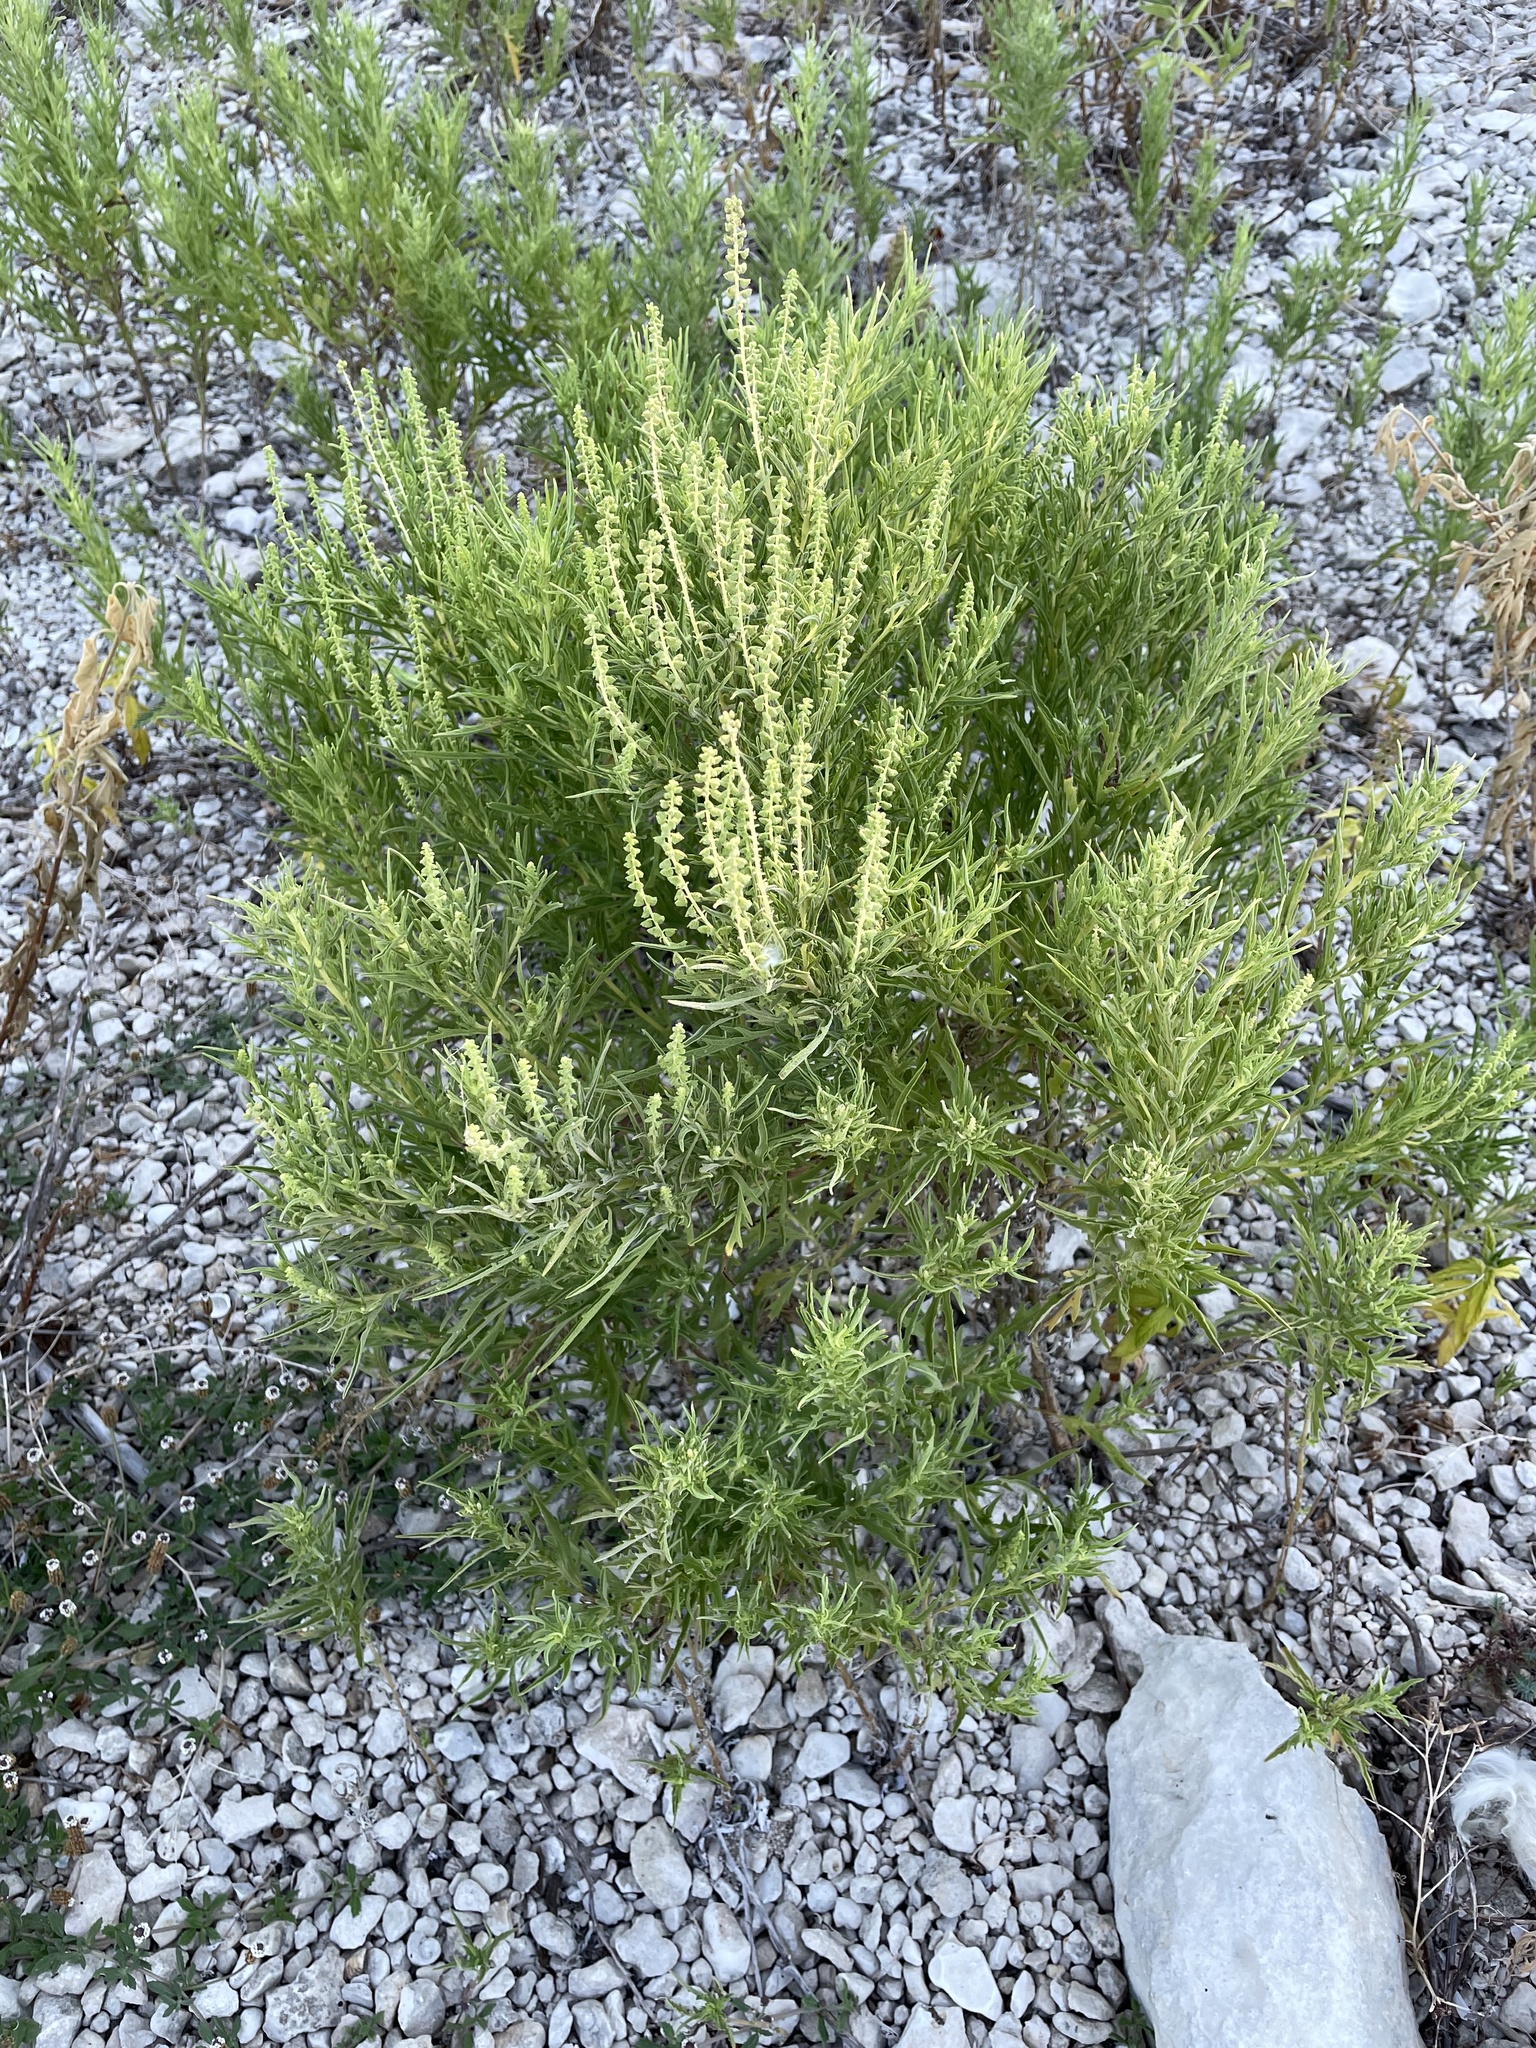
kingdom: Plantae
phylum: Tracheophyta
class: Magnoliopsida
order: Asterales
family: Asteraceae
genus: Ambrosia
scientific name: Ambrosia psilostachya
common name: Perennial ragweed
